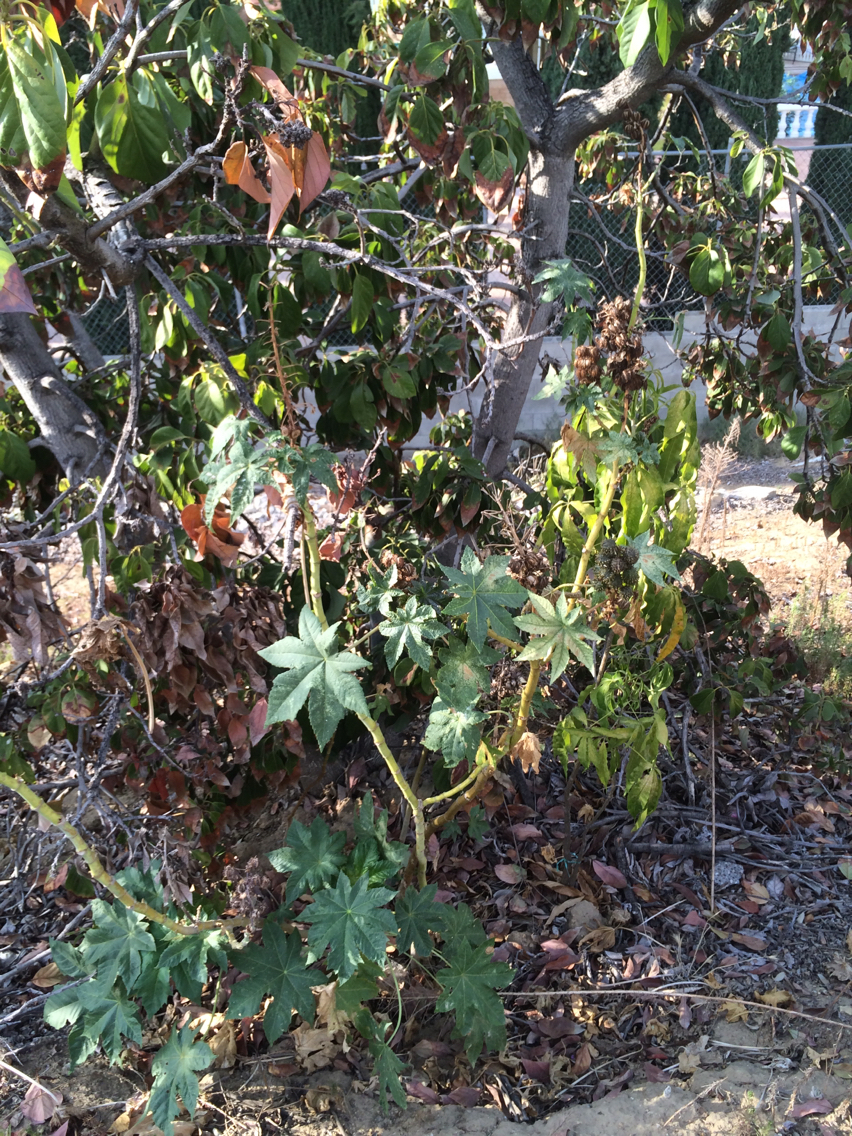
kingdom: Plantae
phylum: Tracheophyta
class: Magnoliopsida
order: Malpighiales
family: Euphorbiaceae
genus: Ricinus
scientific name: Ricinus communis
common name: Castor-oil-plant
